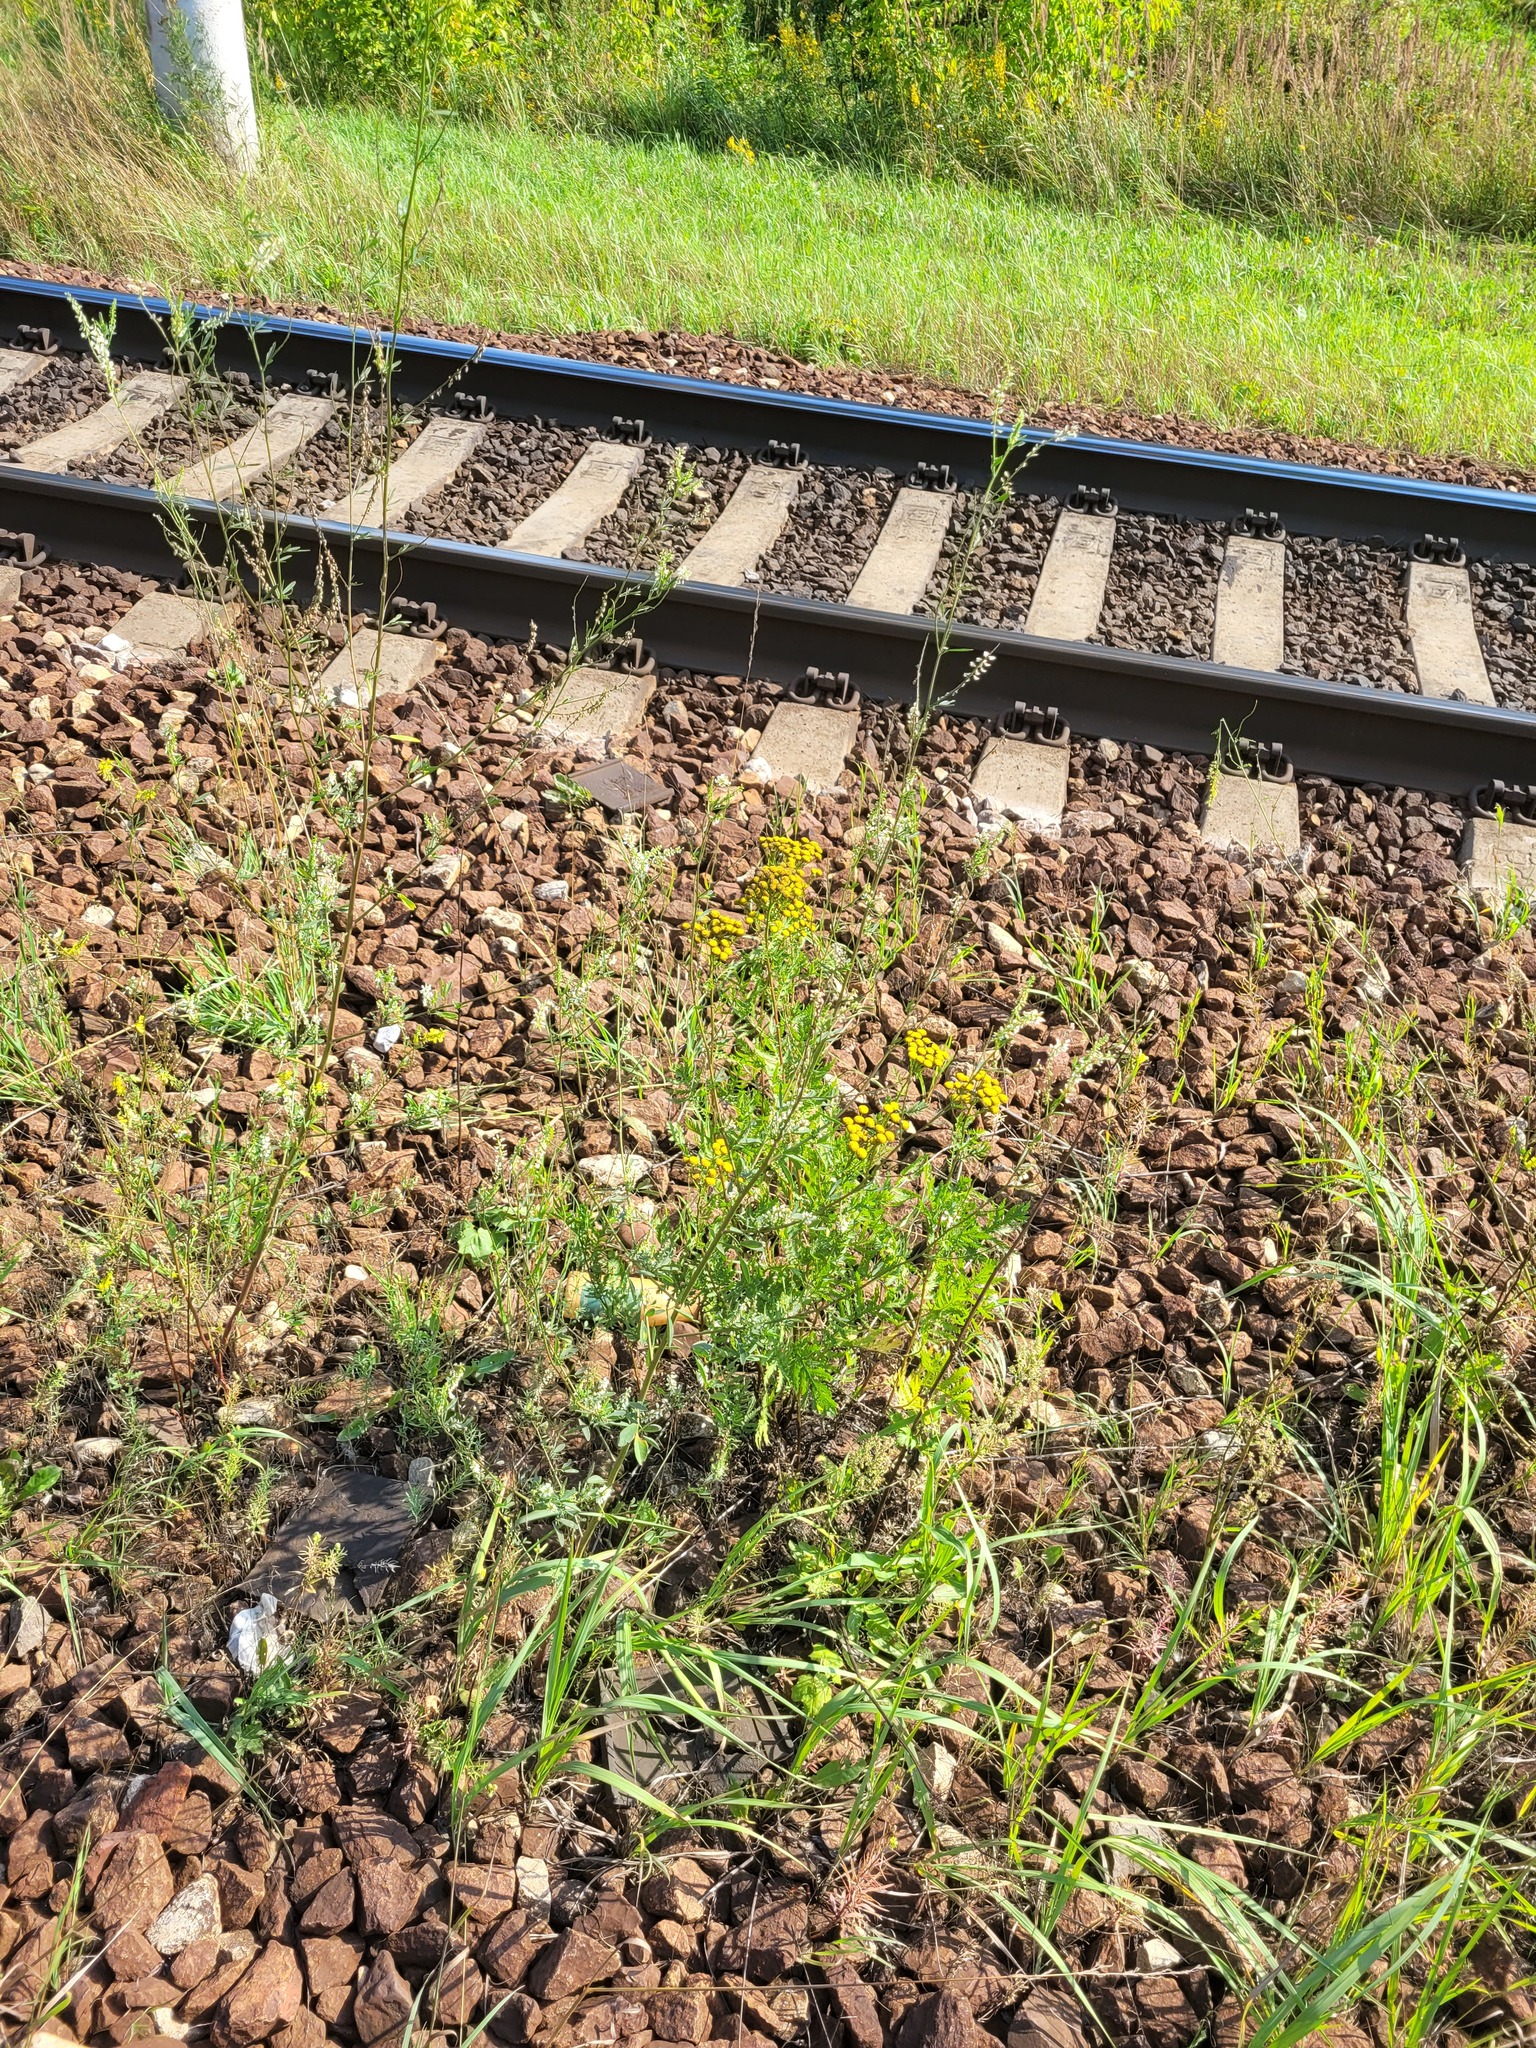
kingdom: Plantae
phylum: Tracheophyta
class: Magnoliopsida
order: Fabales
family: Fabaceae
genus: Melilotus
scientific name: Melilotus albus
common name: White melilot
